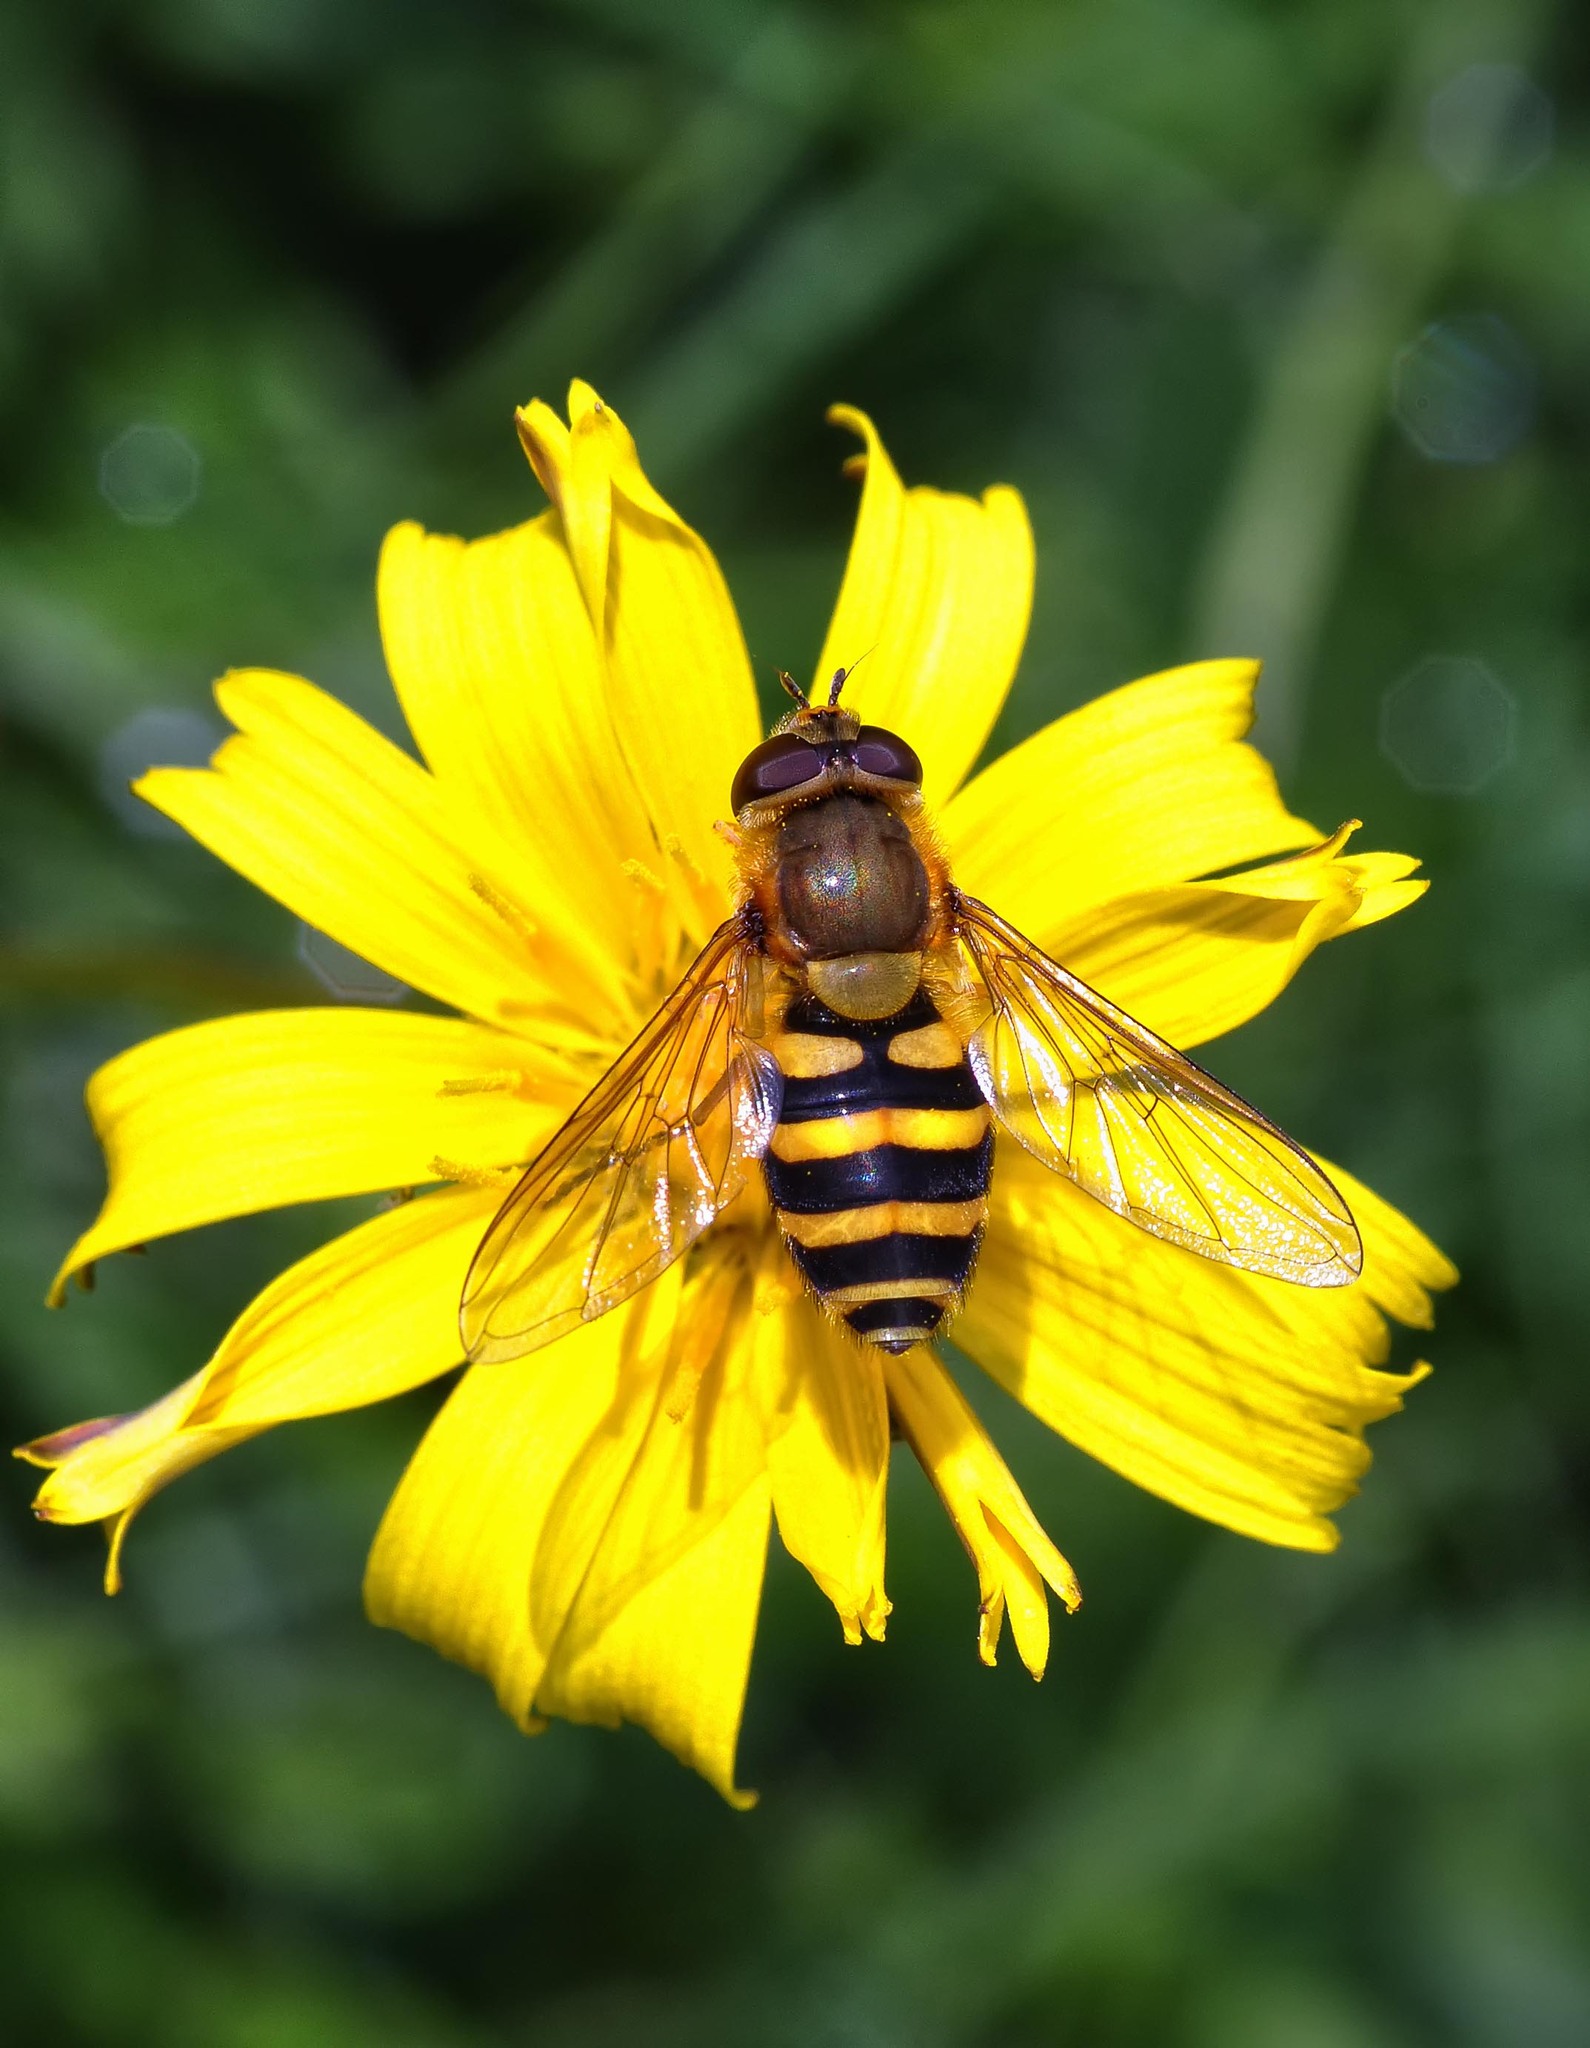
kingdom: Animalia
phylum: Arthropoda
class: Insecta
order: Diptera
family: Syrphidae
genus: Syrphus
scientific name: Syrphus
